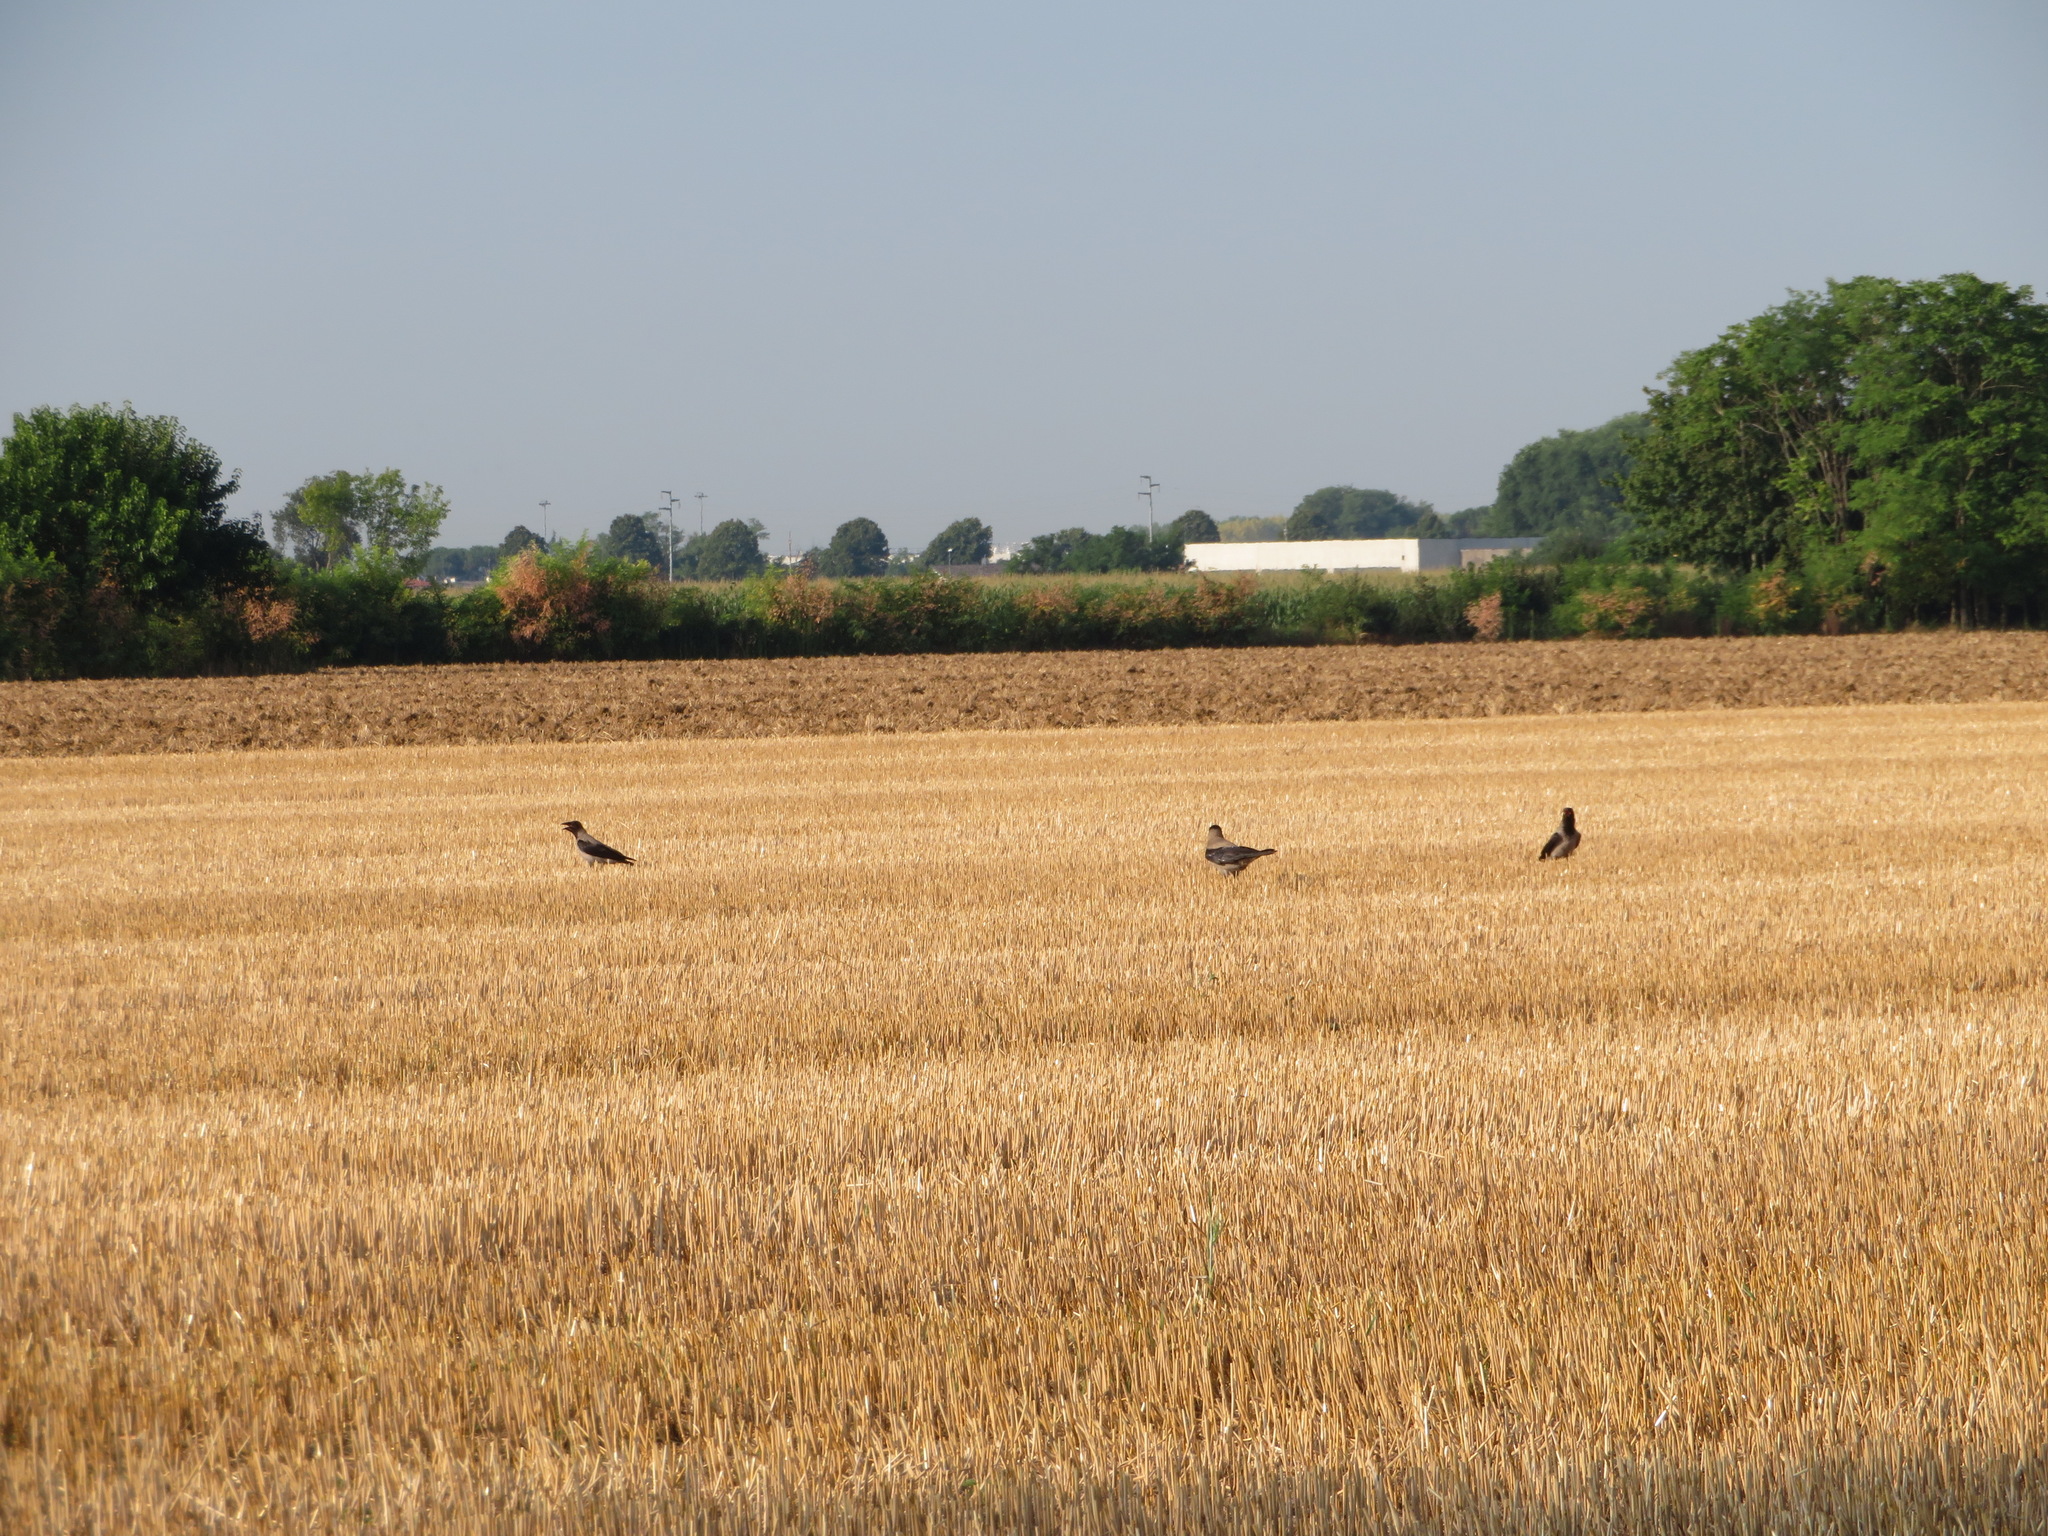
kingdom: Animalia
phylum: Chordata
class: Aves
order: Passeriformes
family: Corvidae
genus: Corvus
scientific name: Corvus cornix
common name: Hooded crow
